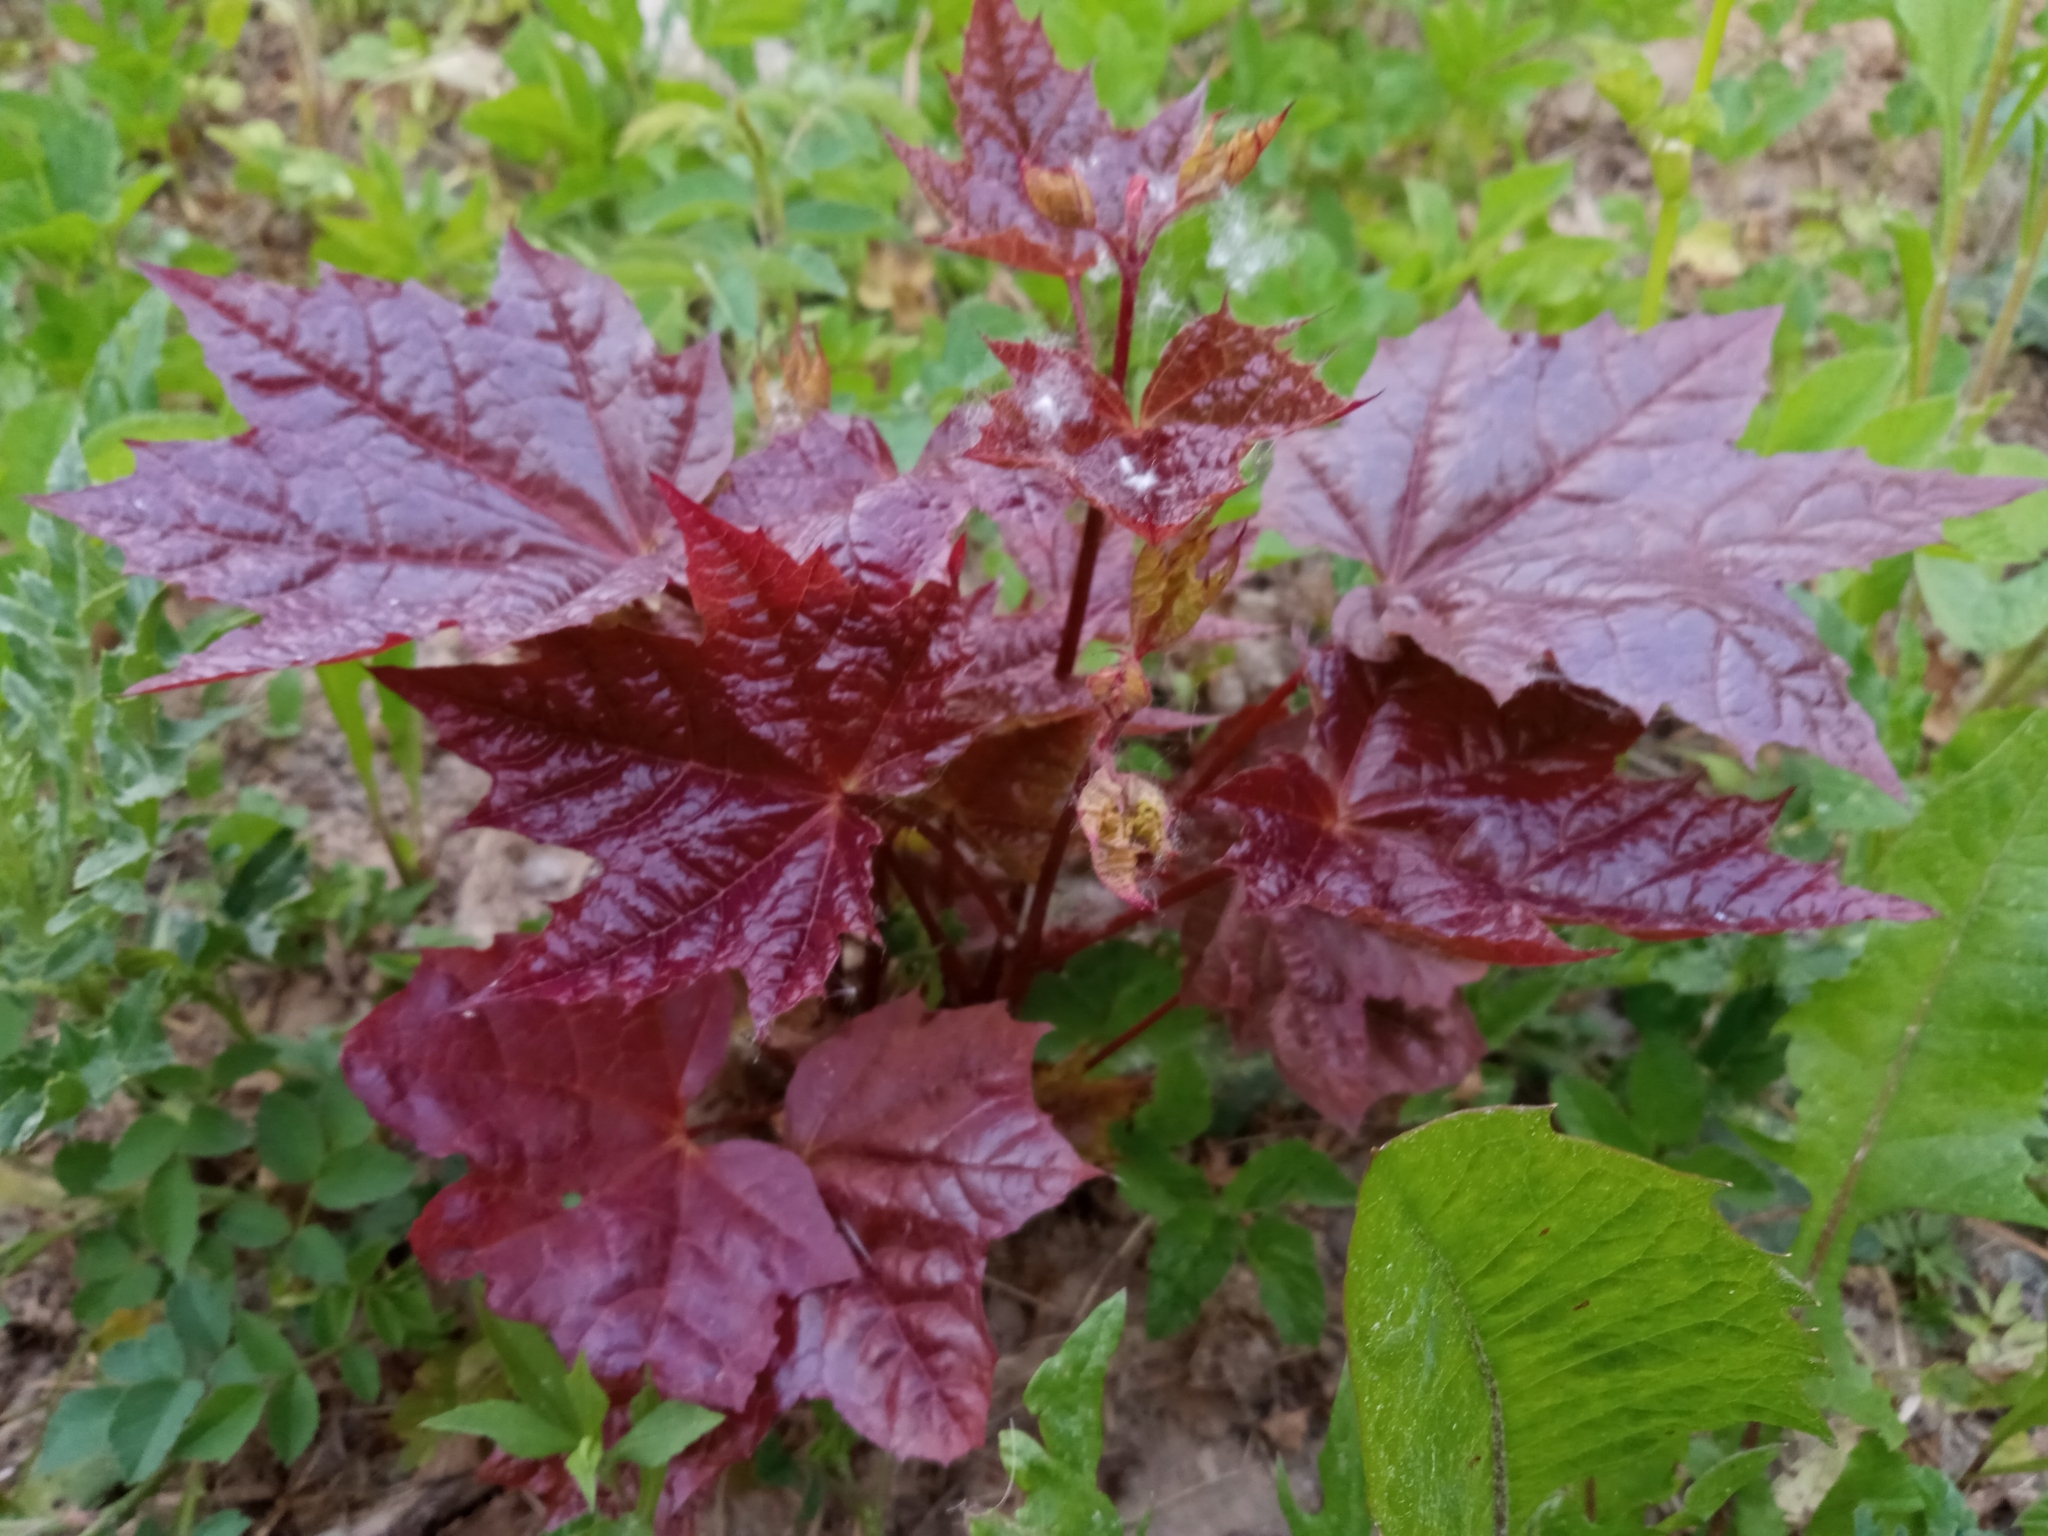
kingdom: Plantae
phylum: Tracheophyta
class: Magnoliopsida
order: Sapindales
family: Sapindaceae
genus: Acer
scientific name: Acer platanoides
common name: Norway maple
